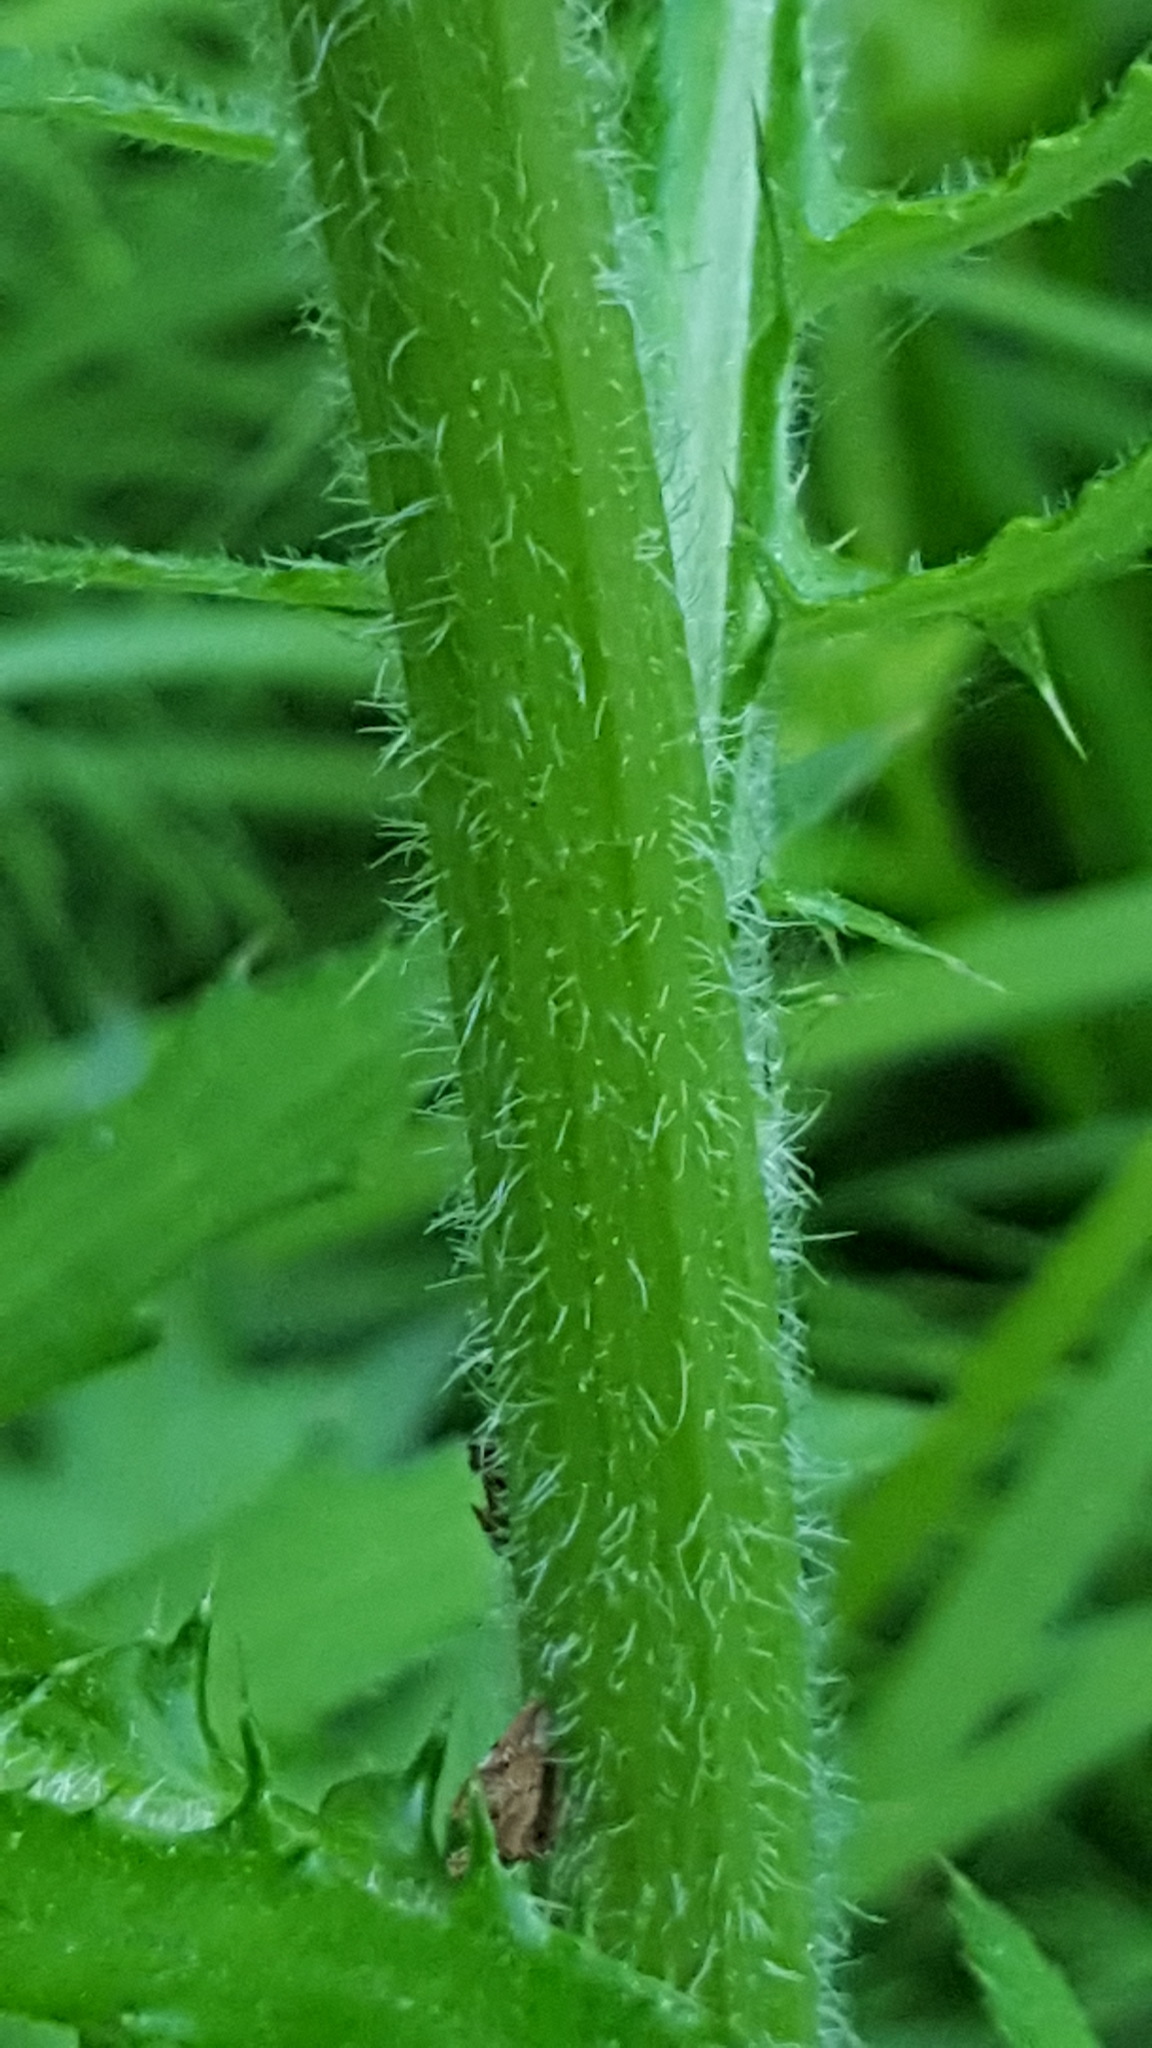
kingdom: Plantae
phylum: Tracheophyta
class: Magnoliopsida
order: Asterales
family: Asteraceae
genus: Cirsium
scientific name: Cirsium muticum
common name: Dunce-nettle
